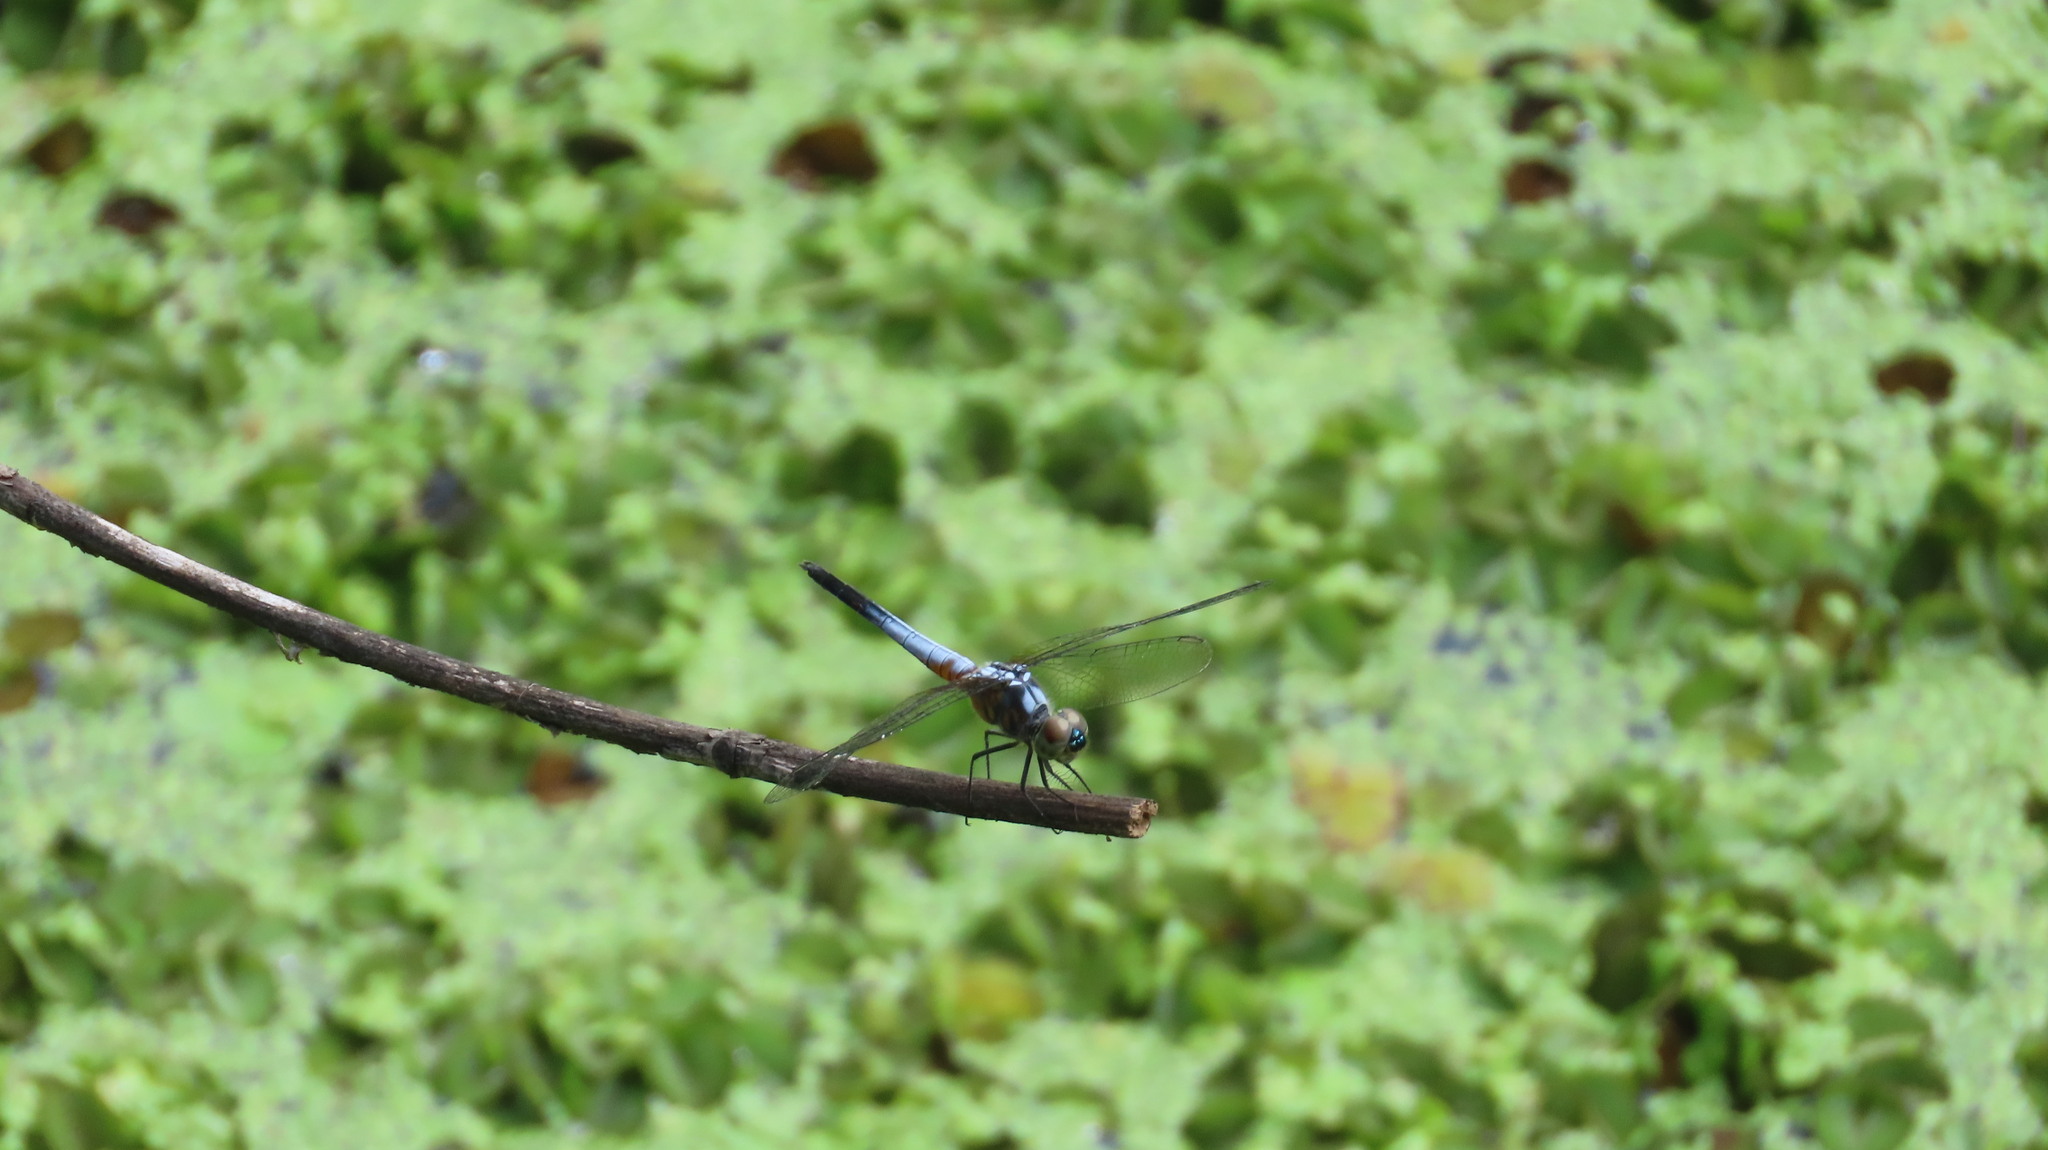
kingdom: Animalia
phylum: Arthropoda
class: Insecta
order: Odonata
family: Libellulidae
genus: Brachydiplax
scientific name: Brachydiplax chalybea
